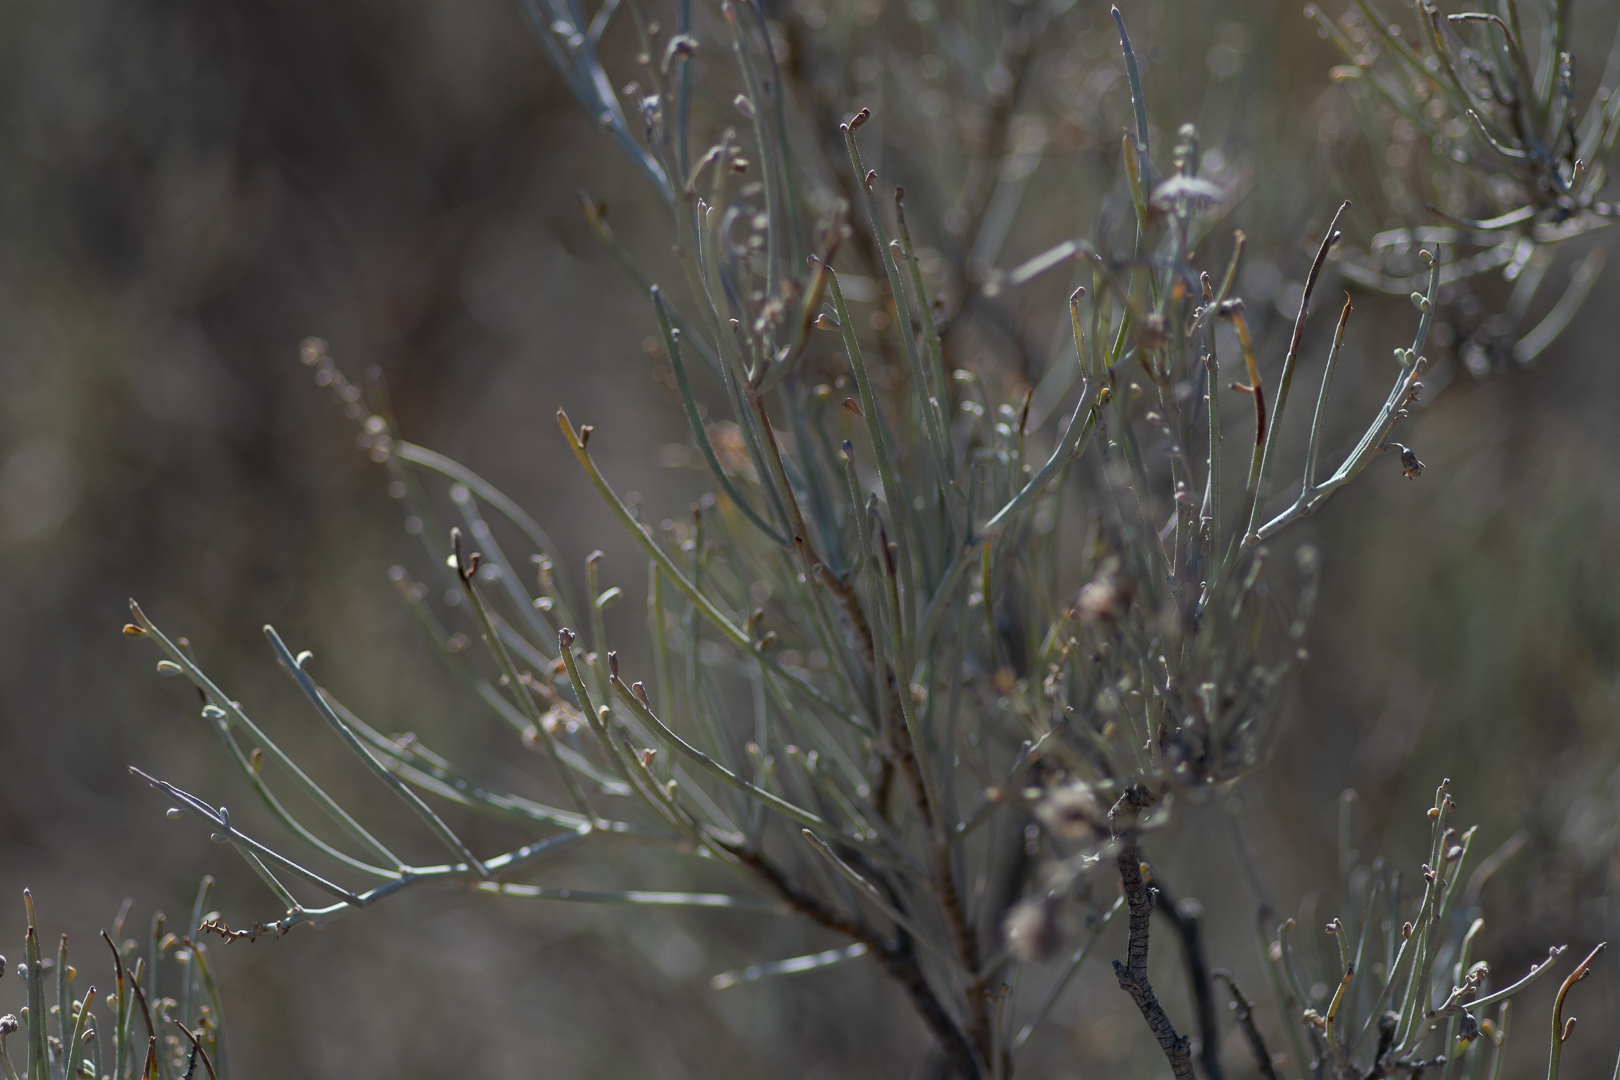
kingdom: Plantae
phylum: Tracheophyta
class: Magnoliopsida
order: Fabales
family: Fabaceae
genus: Adesmia
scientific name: Adesmia argentea
